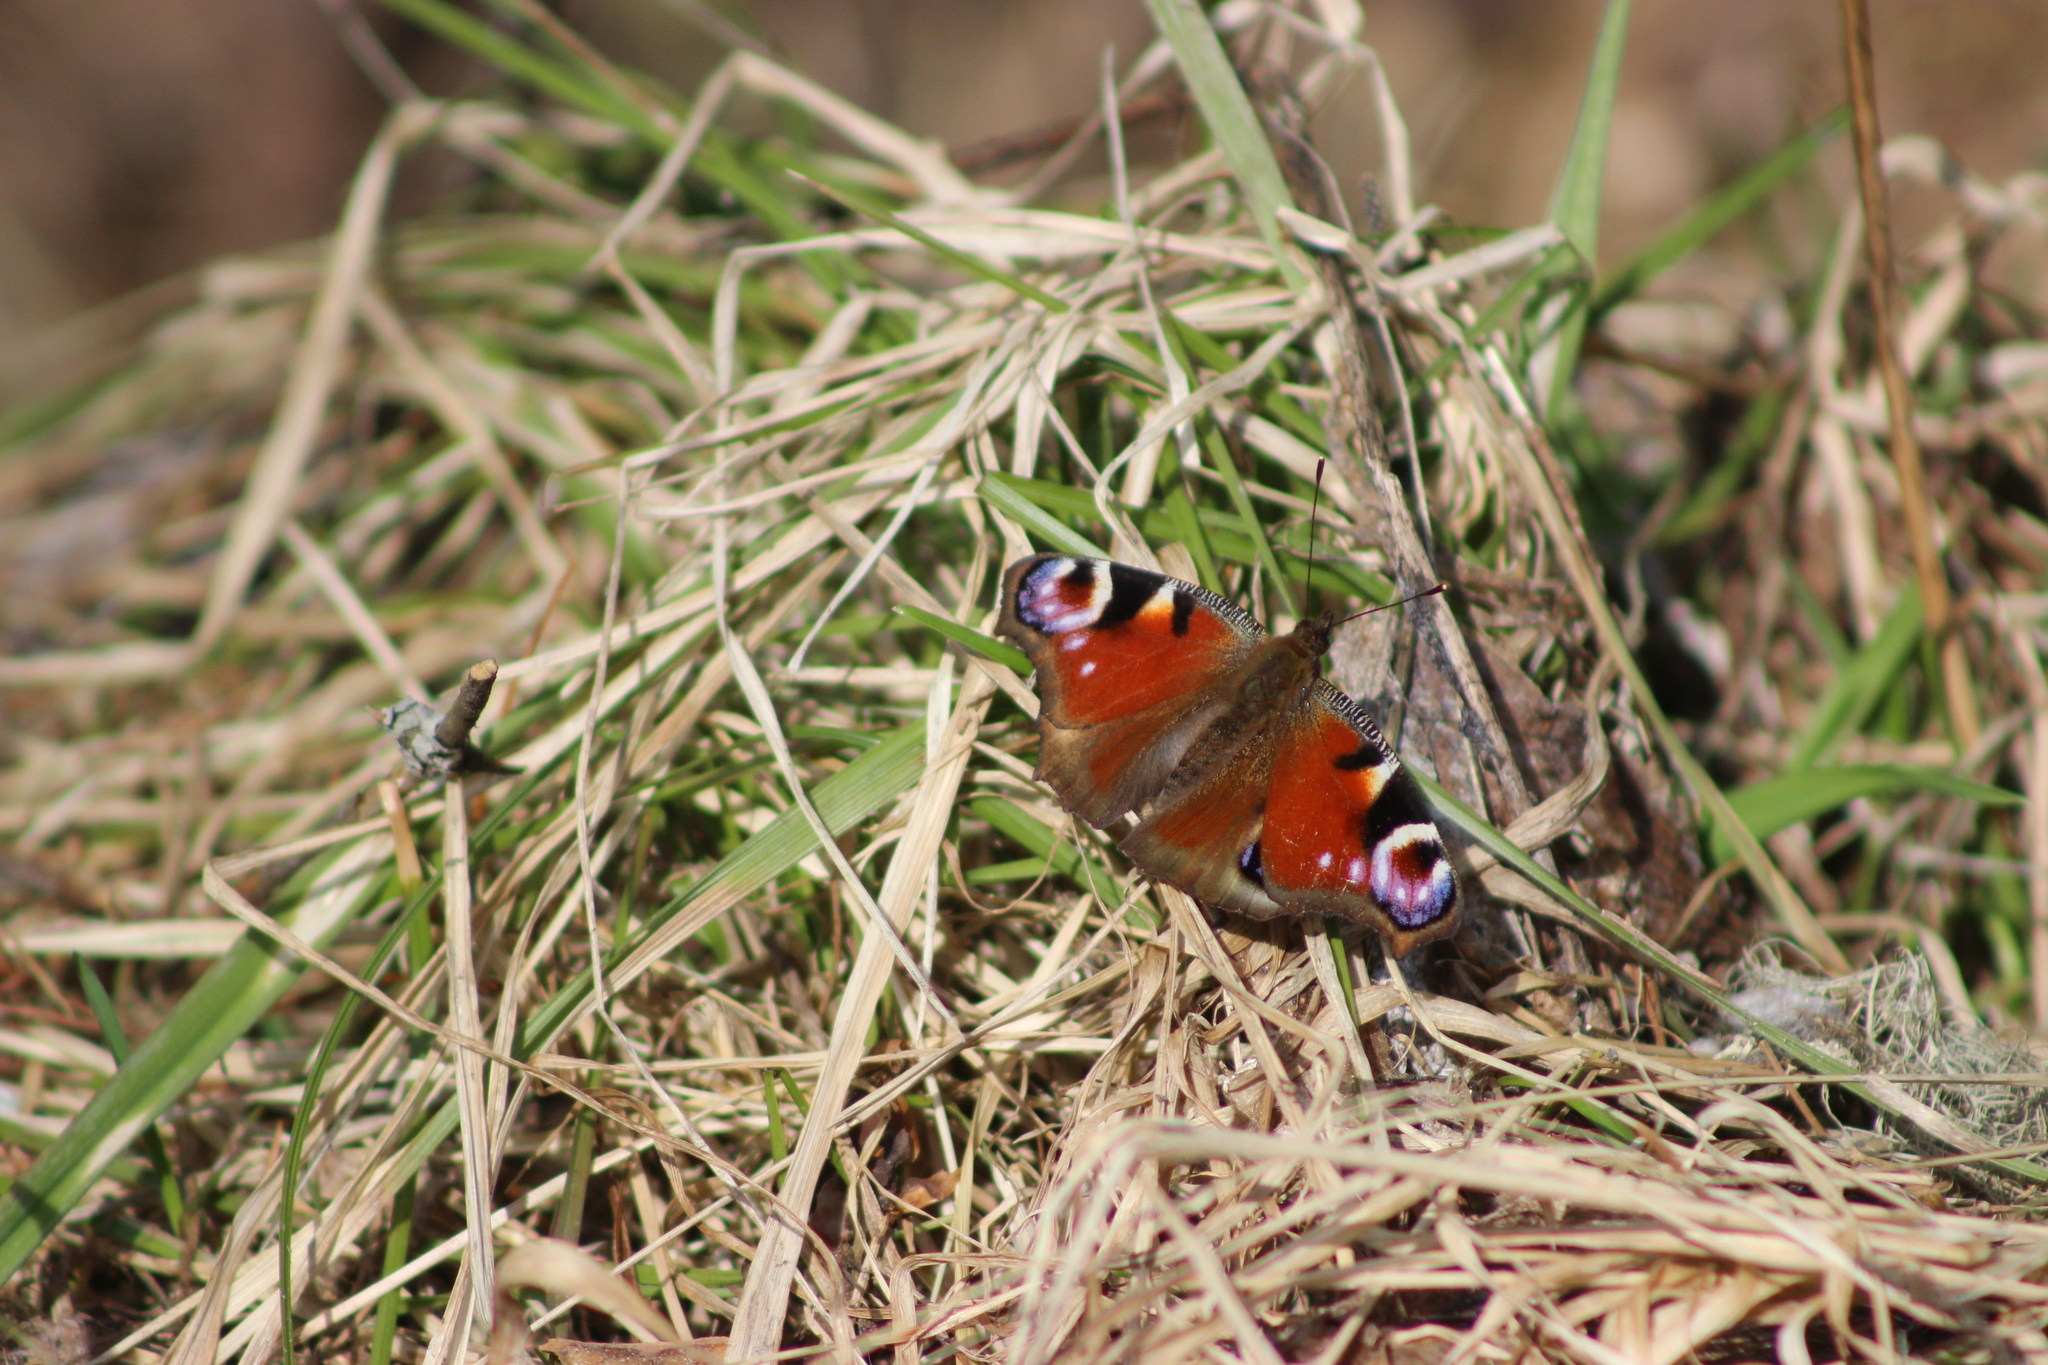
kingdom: Animalia
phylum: Arthropoda
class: Insecta
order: Lepidoptera
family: Nymphalidae
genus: Aglais
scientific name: Aglais io
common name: Peacock
